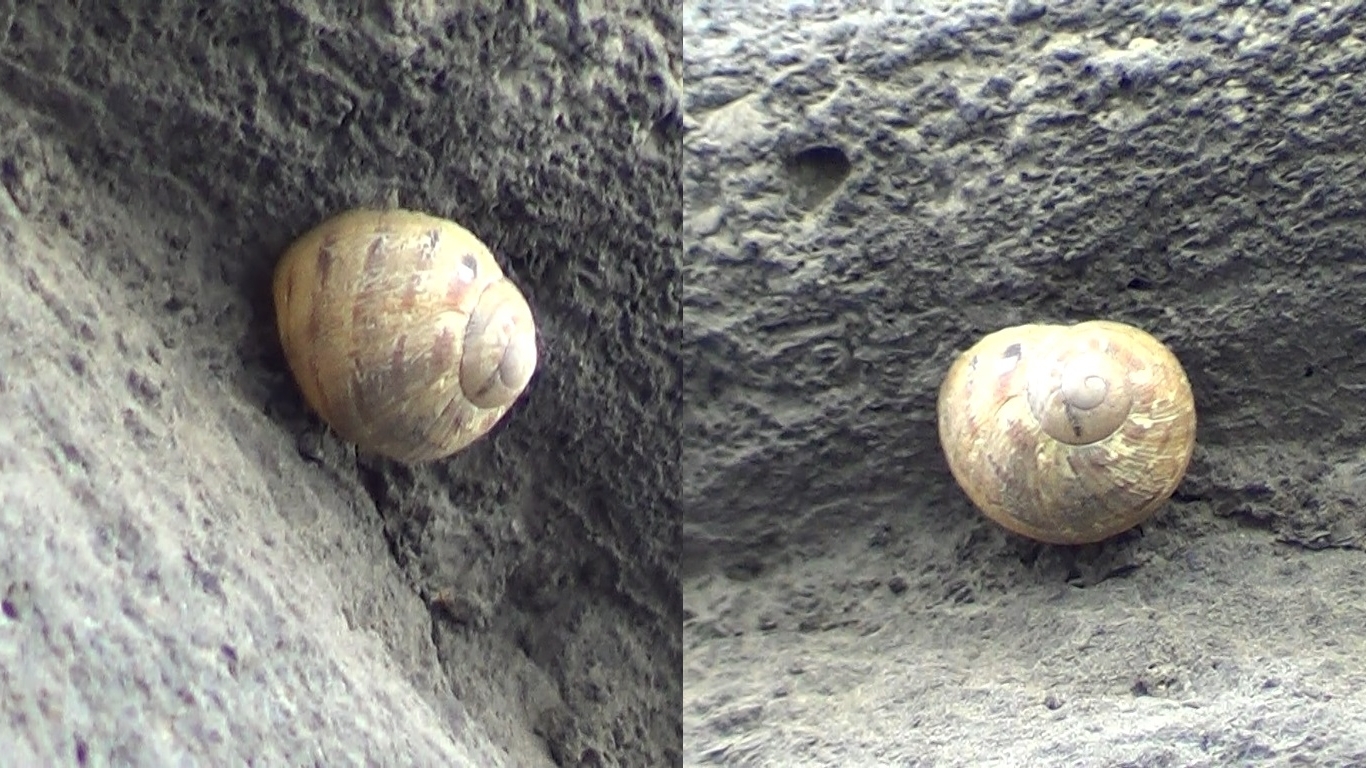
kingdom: Animalia
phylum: Mollusca
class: Gastropoda
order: Stylommatophora
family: Helicidae
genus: Cornu
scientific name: Cornu aspersum
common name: Brown garden snail
